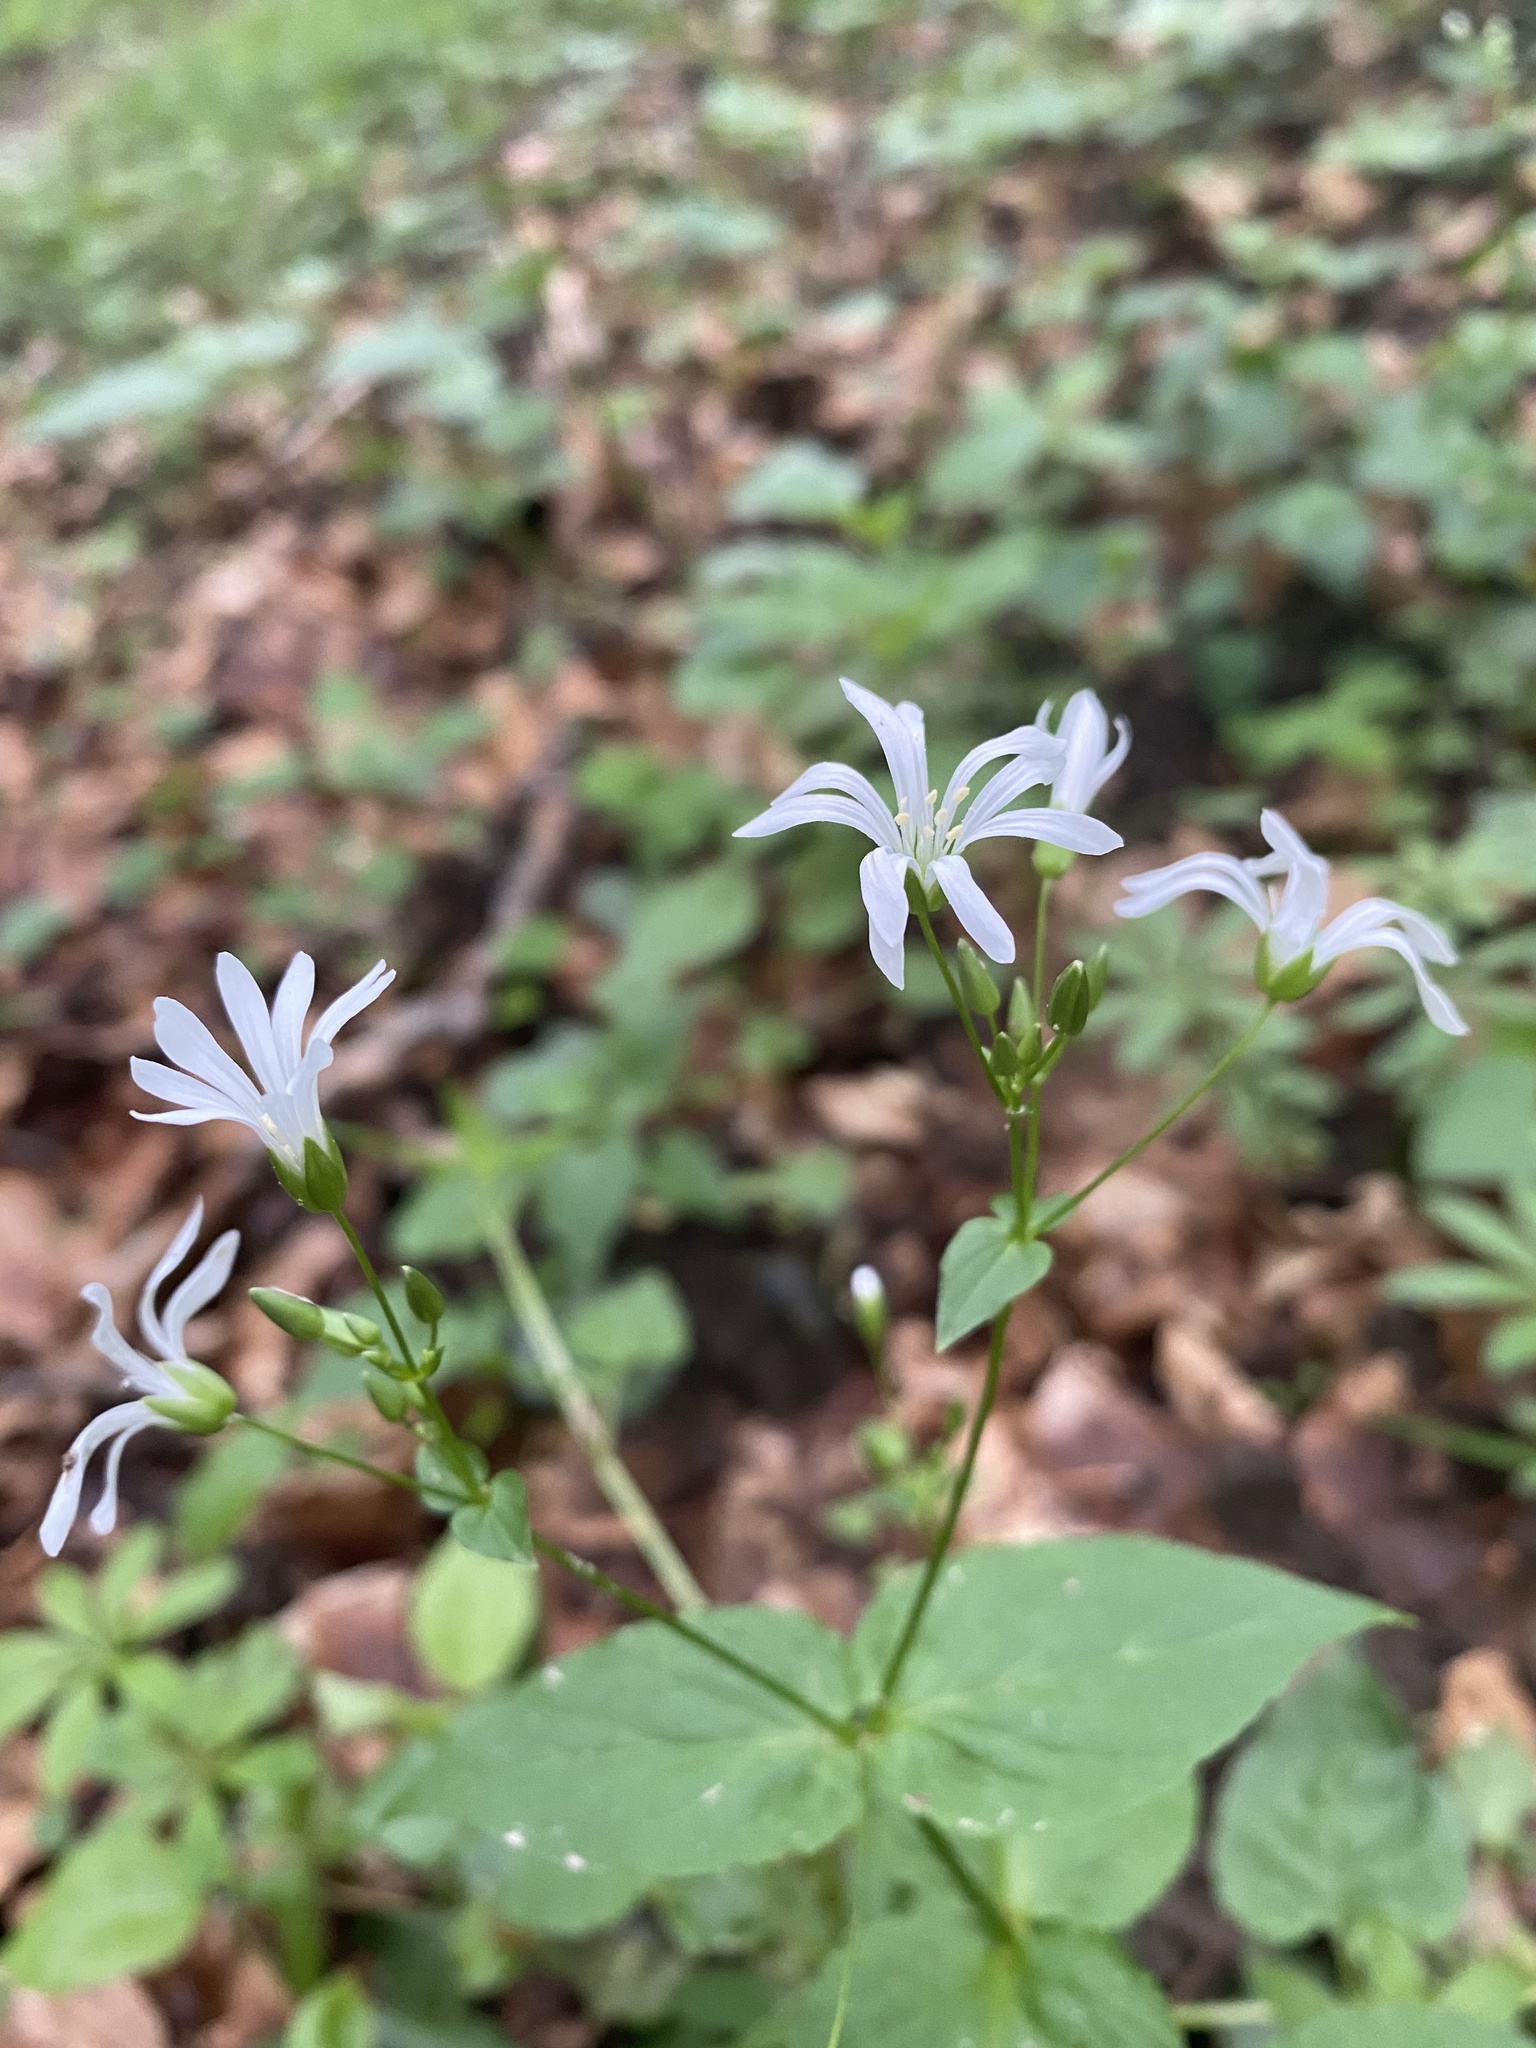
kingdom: Plantae
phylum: Tracheophyta
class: Magnoliopsida
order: Caryophyllales
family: Caryophyllaceae
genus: Stellaria
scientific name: Stellaria nemorum
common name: Wood stitchwort
